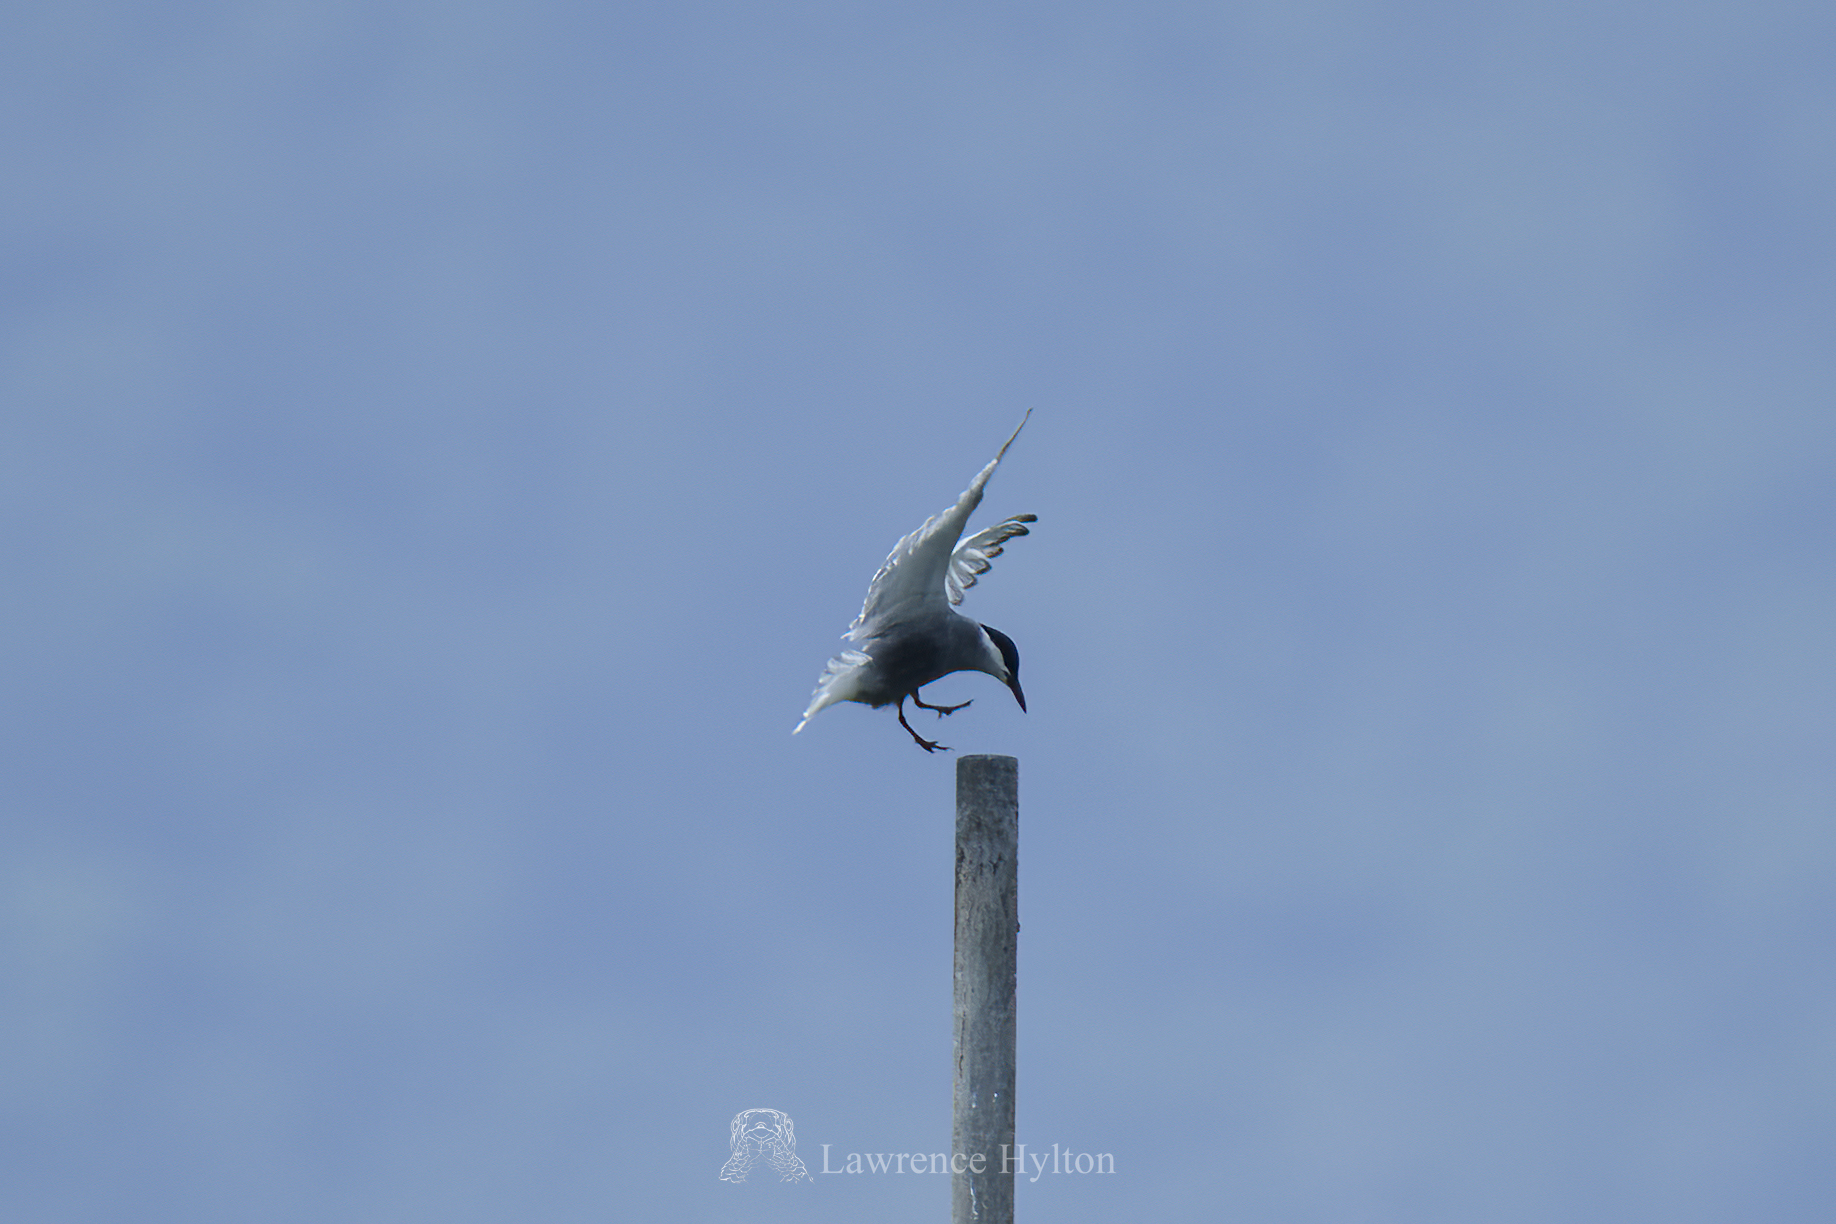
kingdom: Animalia
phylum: Chordata
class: Aves
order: Charadriiformes
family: Laridae
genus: Chlidonias
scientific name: Chlidonias hybrida
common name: Whiskered tern
